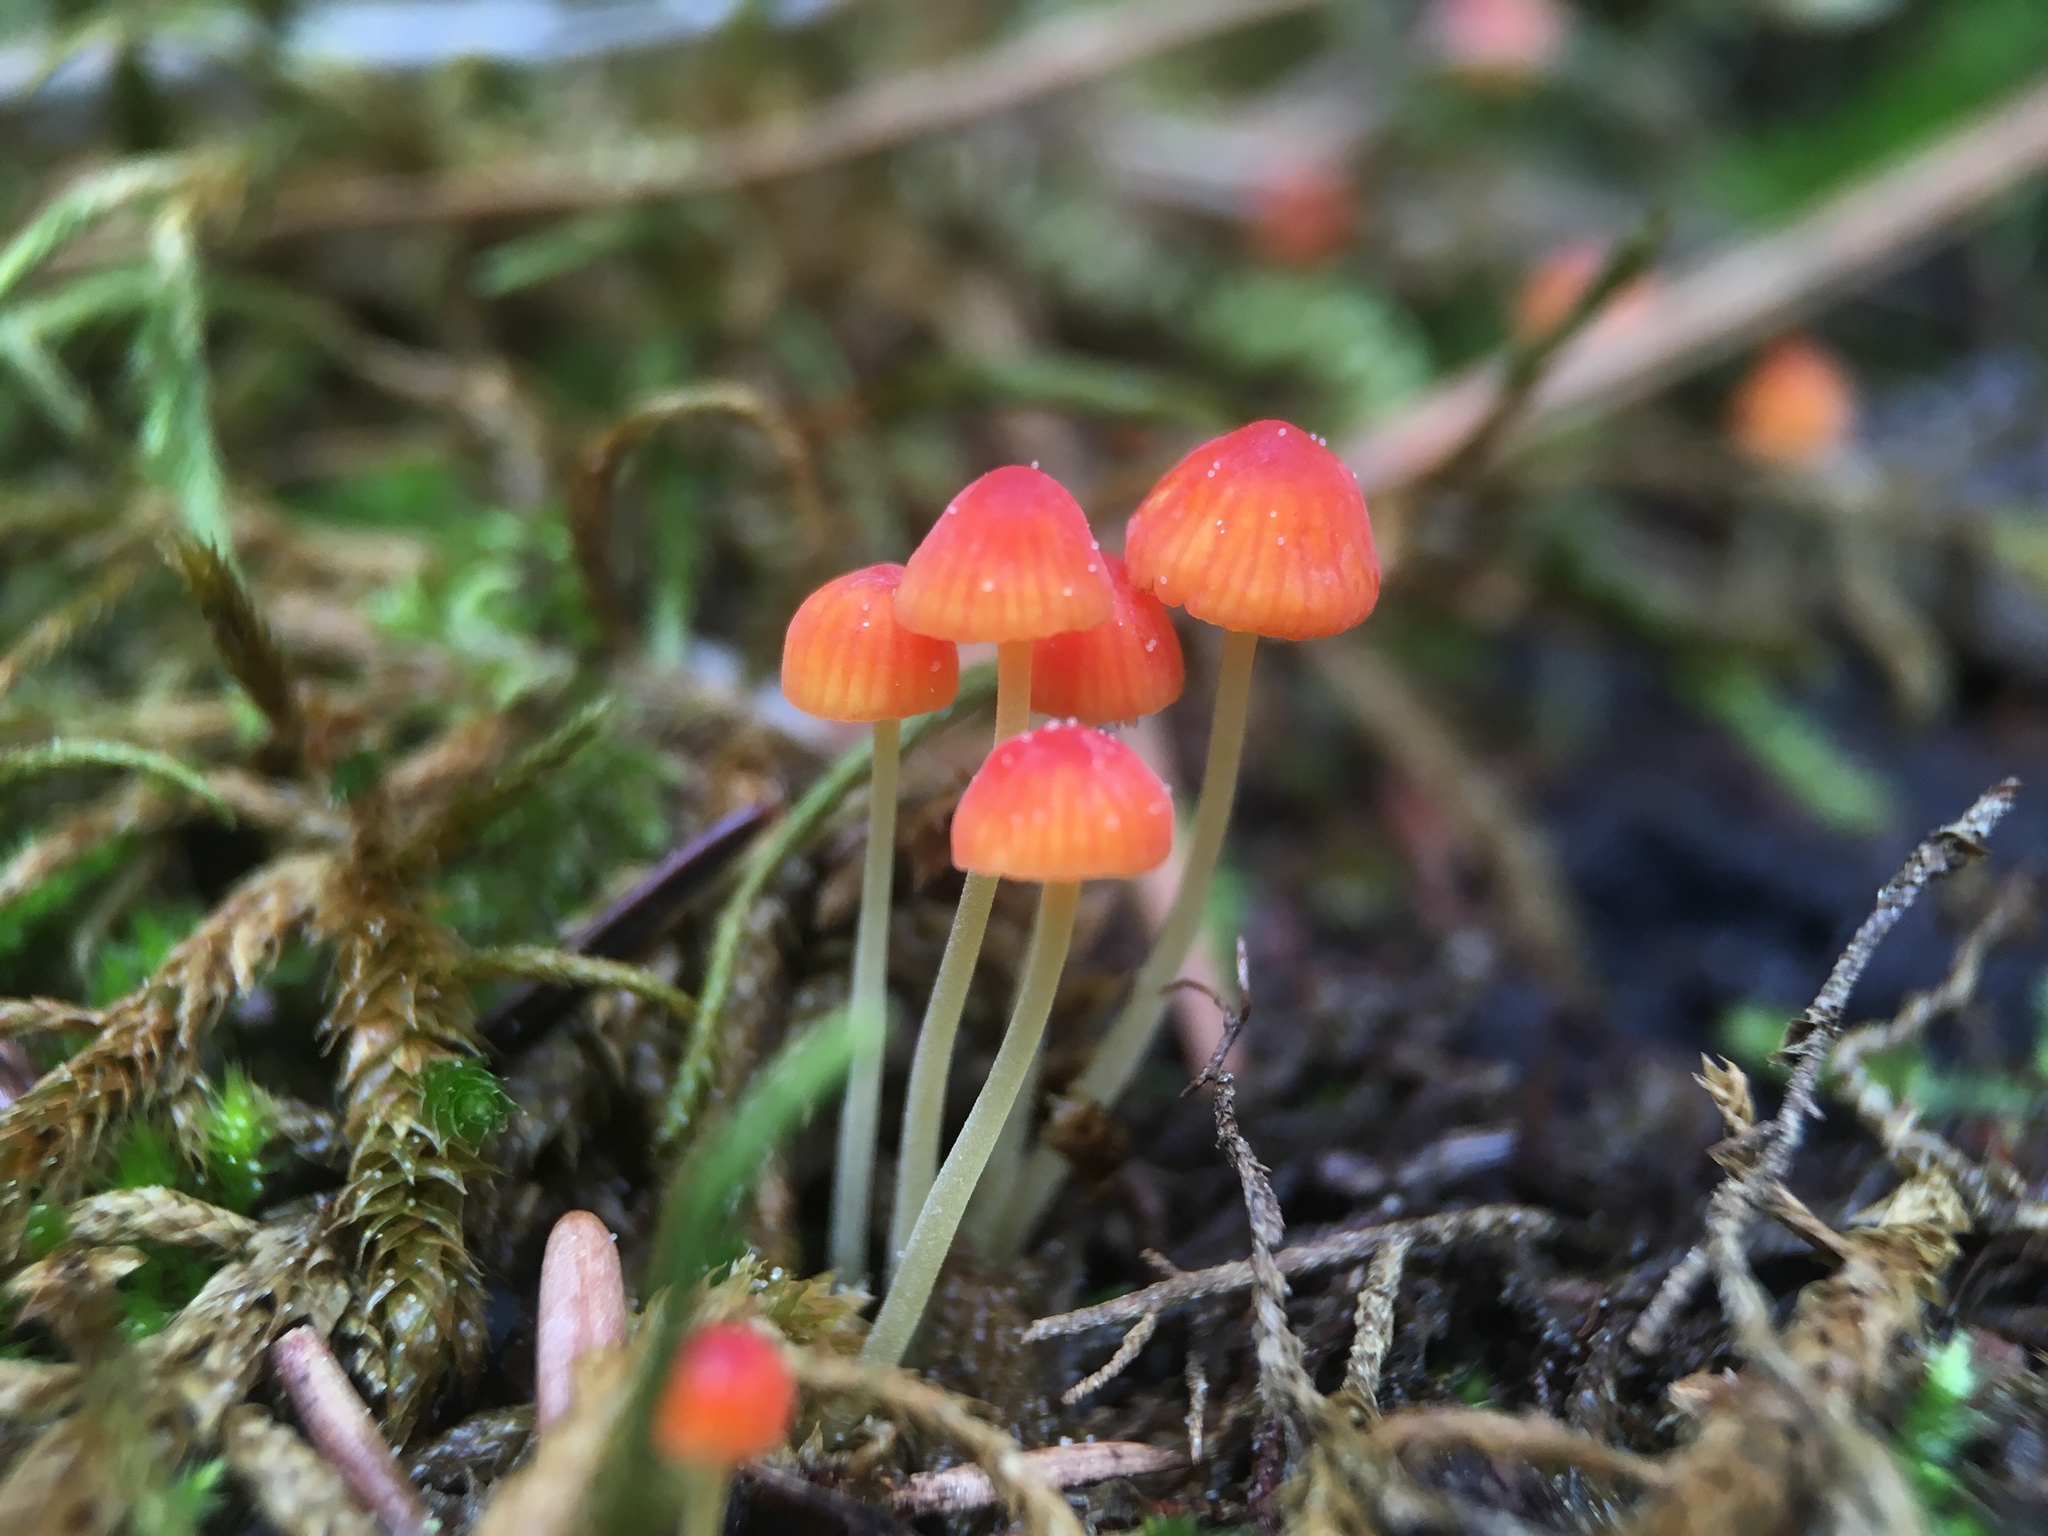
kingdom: Fungi
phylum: Basidiomycota
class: Agaricomycetes
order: Agaricales
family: Mycenaceae
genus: Mycena
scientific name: Mycena acicula
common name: Orange bonnet
